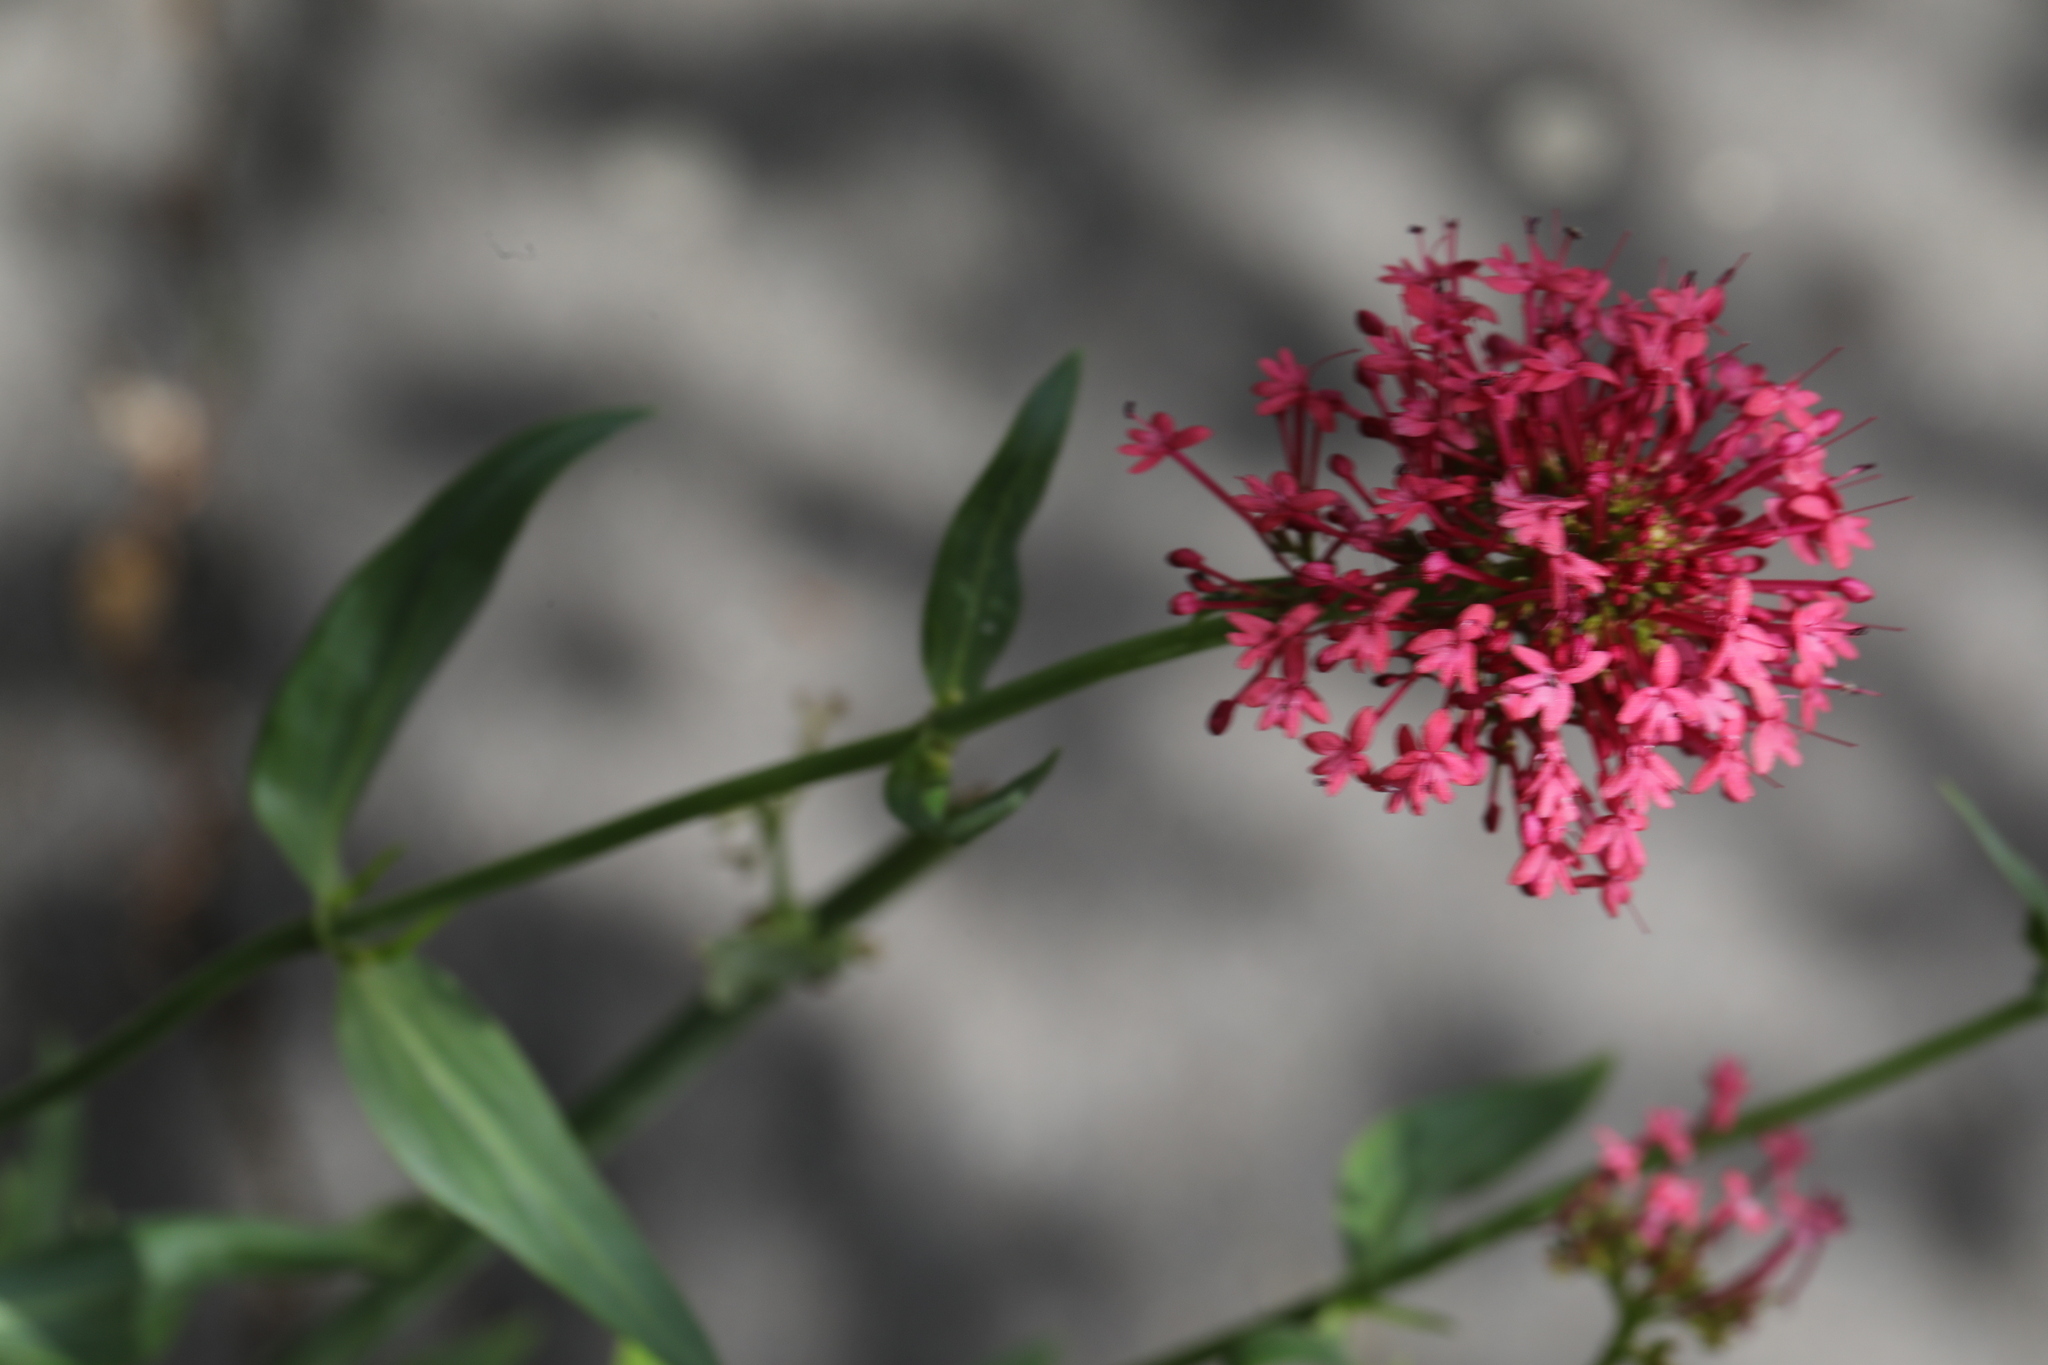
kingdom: Plantae
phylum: Tracheophyta
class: Magnoliopsida
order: Dipsacales
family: Caprifoliaceae
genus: Centranthus
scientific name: Centranthus ruber
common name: Red valerian
